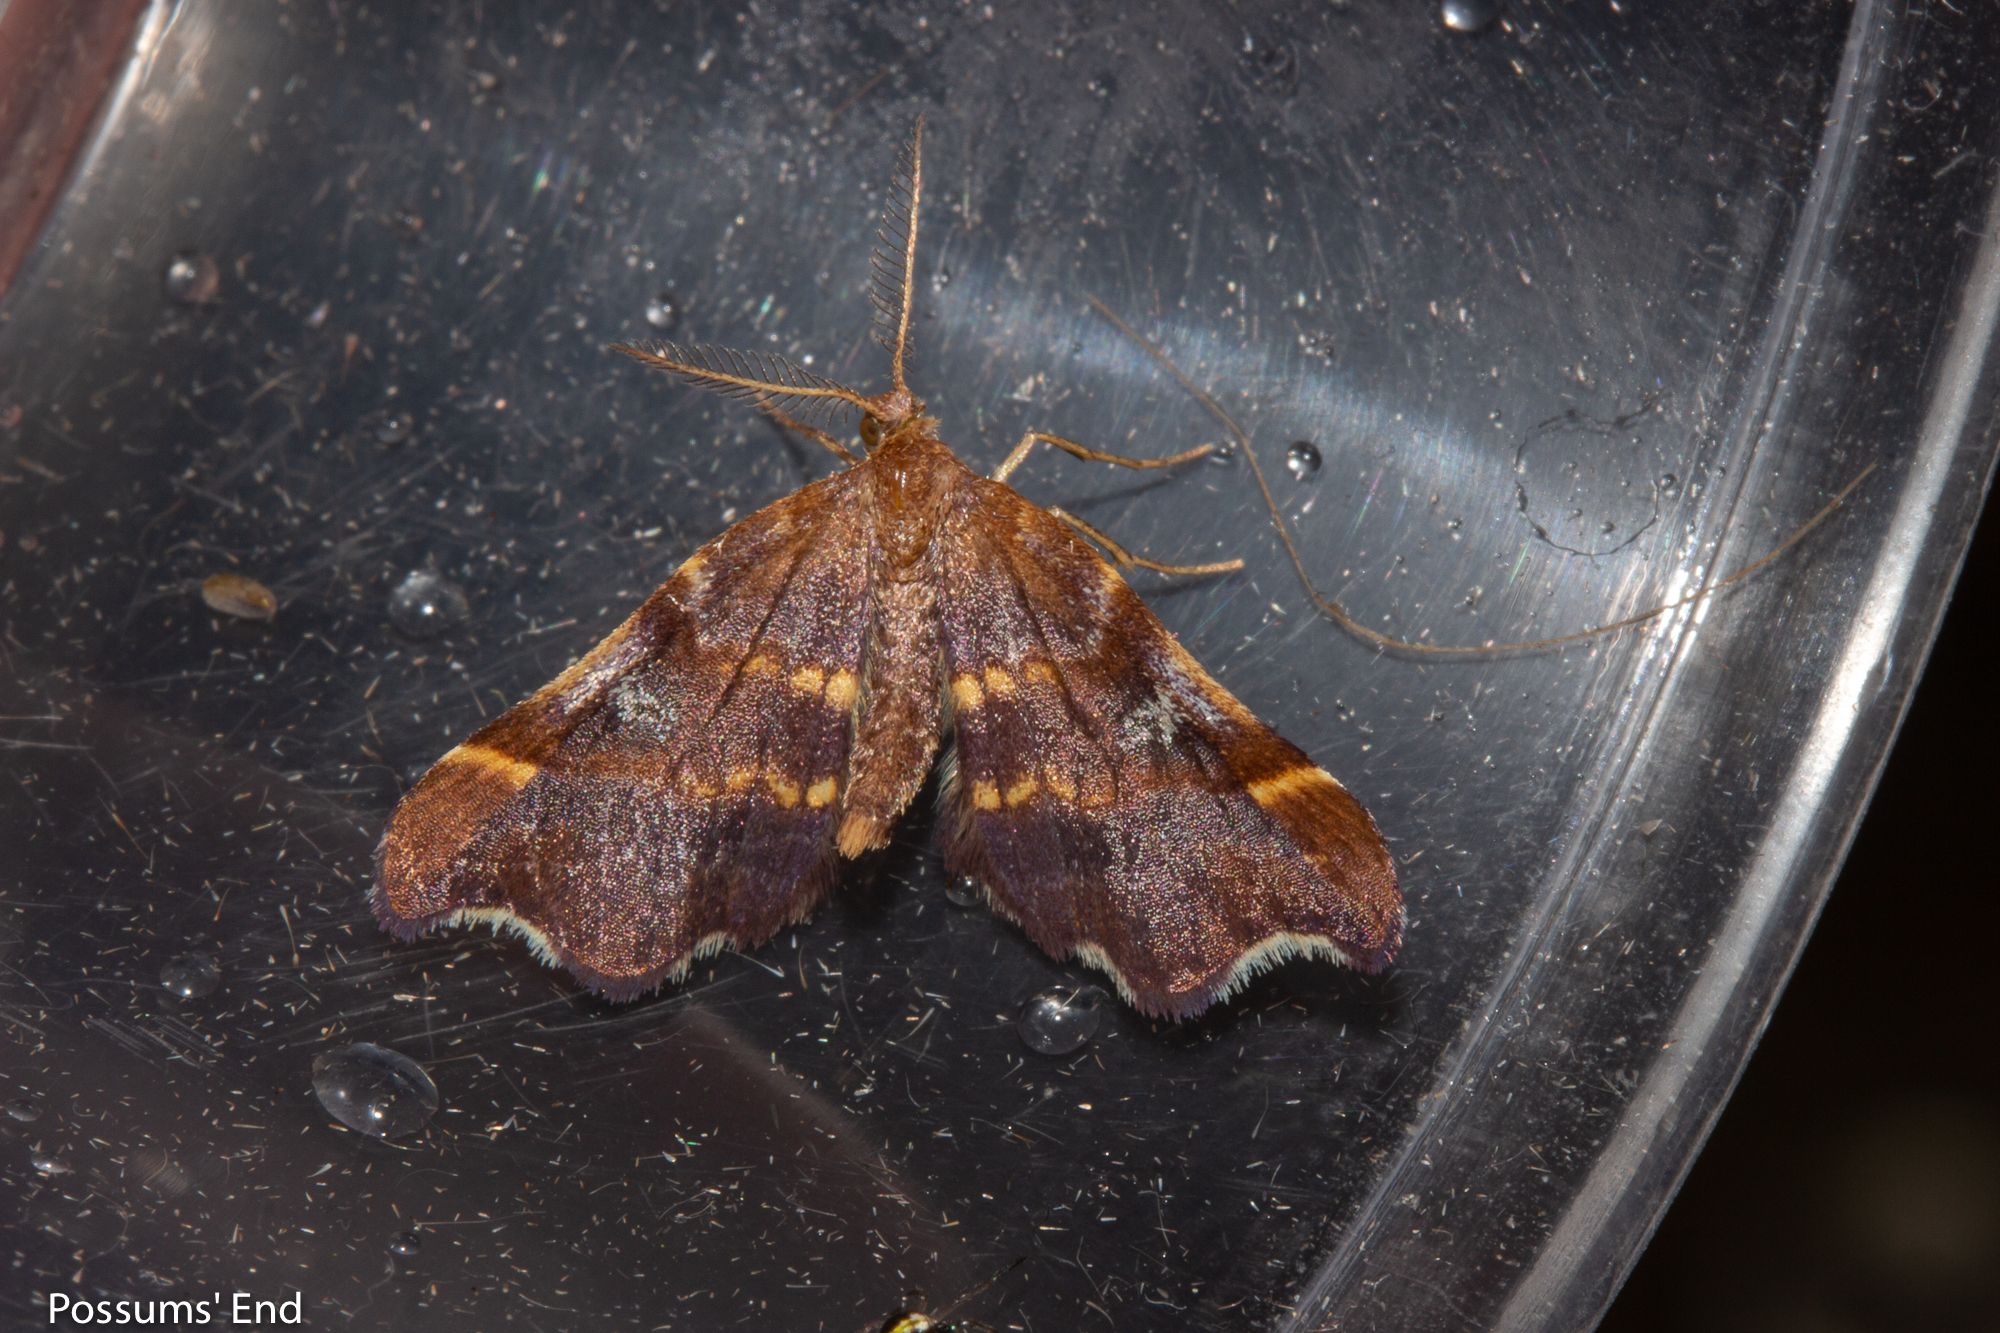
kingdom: Animalia
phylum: Arthropoda
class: Insecta
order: Lepidoptera
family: Geometridae
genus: Paradetis
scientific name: Paradetis porphyrias
